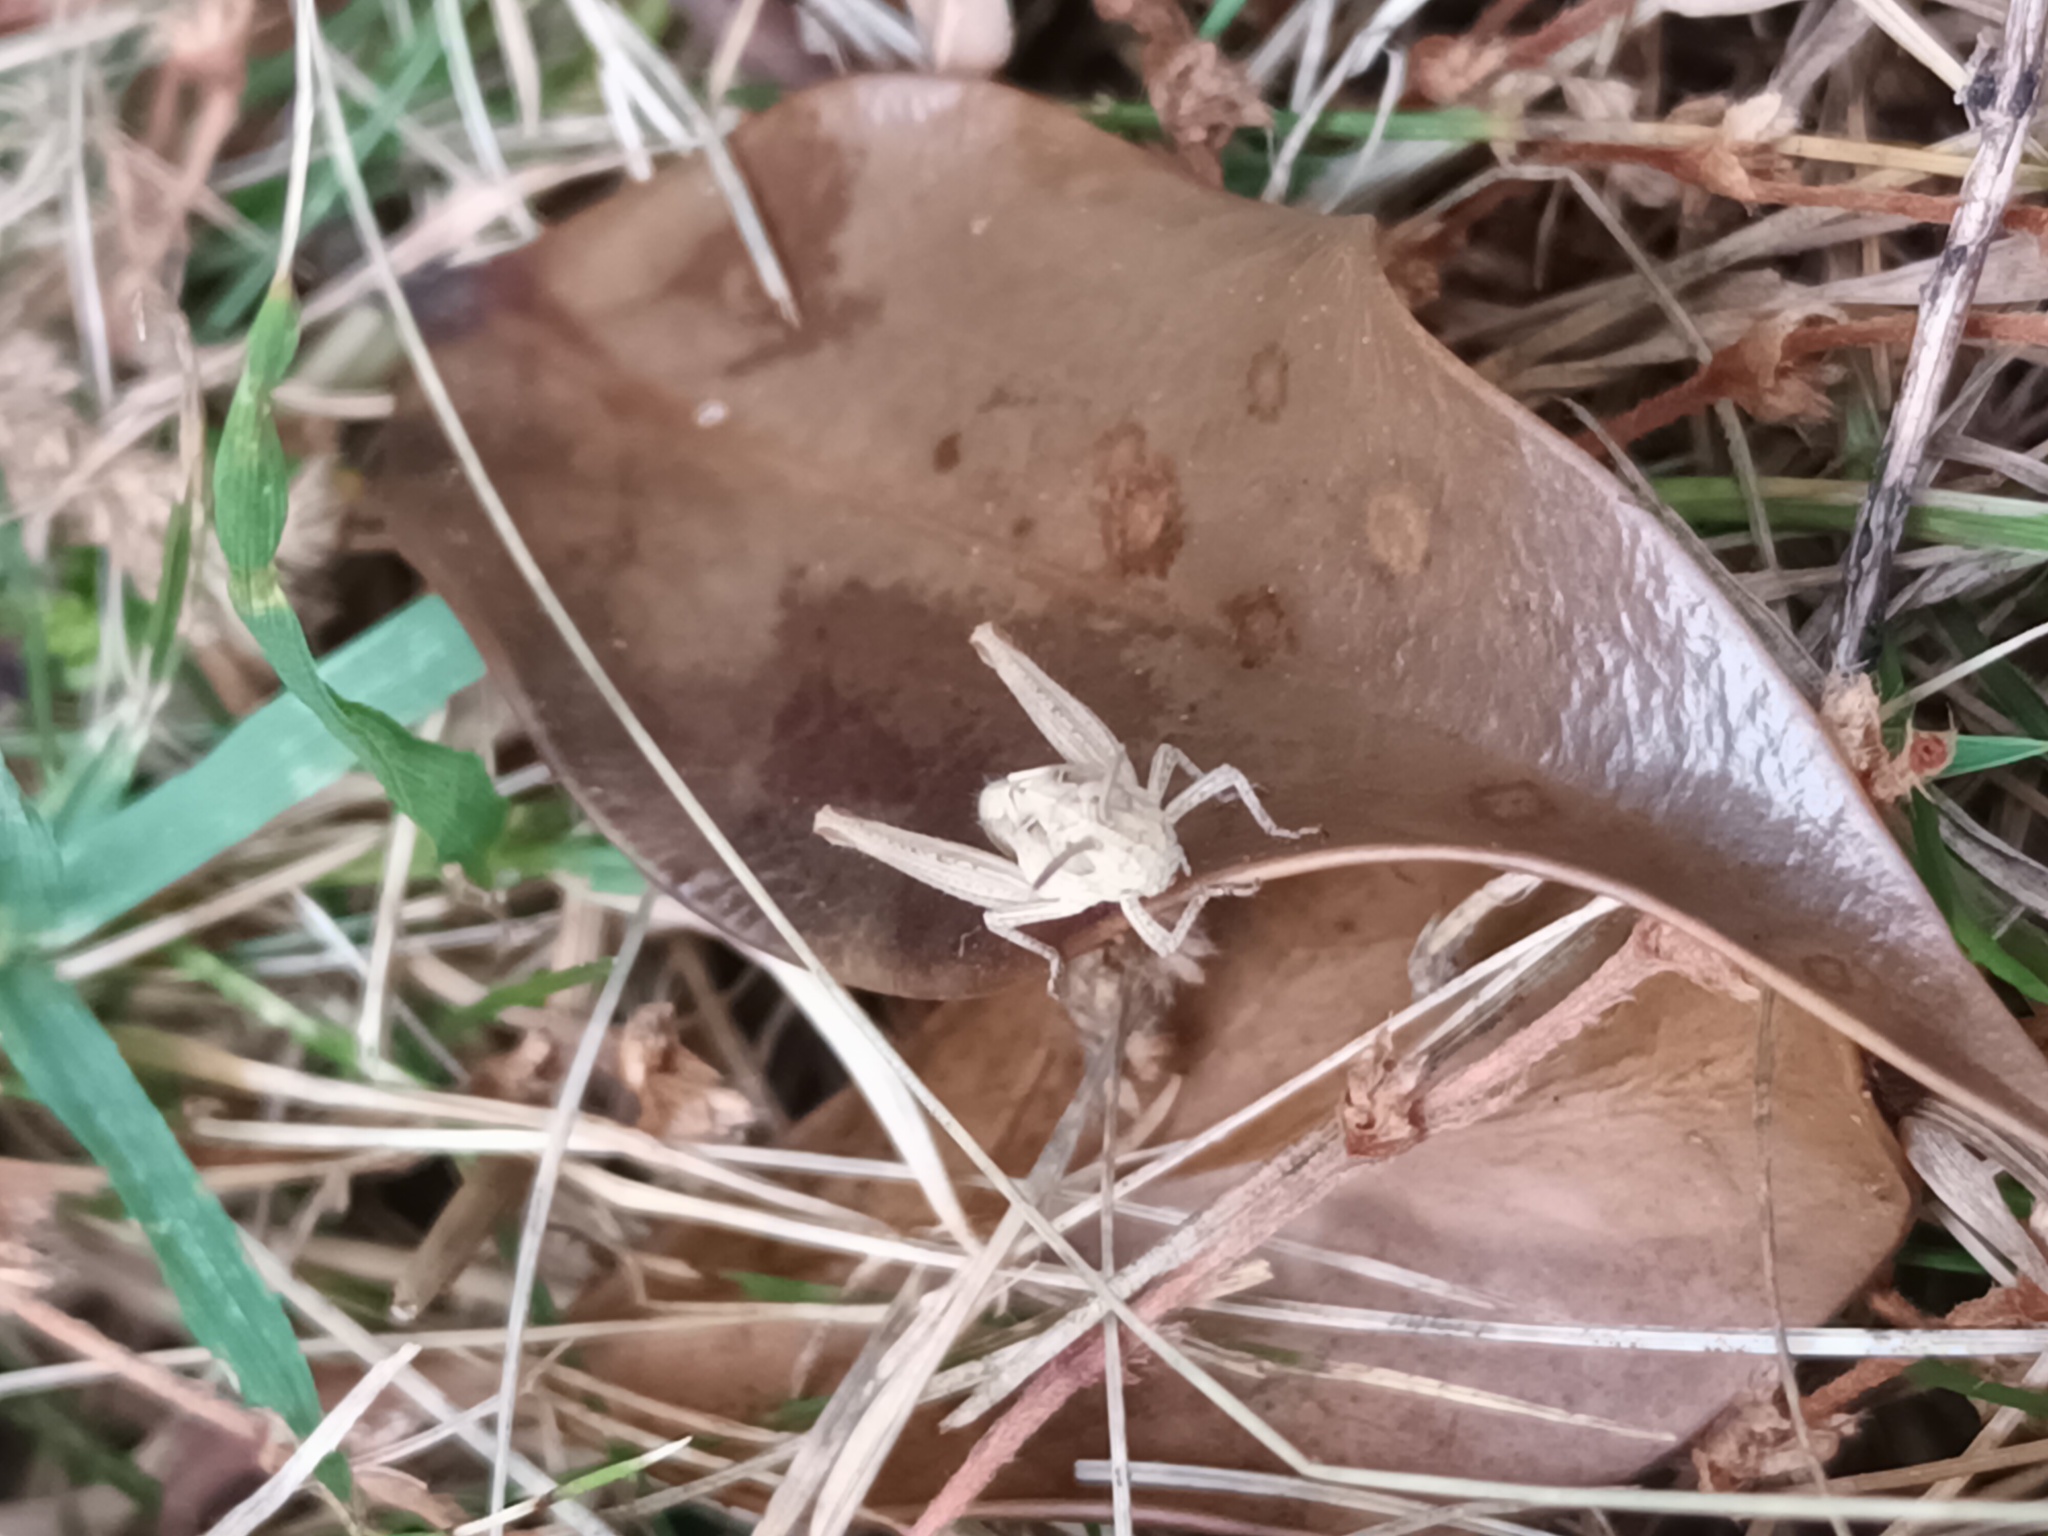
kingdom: Animalia
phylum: Arthropoda
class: Insecta
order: Orthoptera
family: Acrididae
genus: Chorthippus
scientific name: Chorthippus brunneus
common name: Field grasshopper
